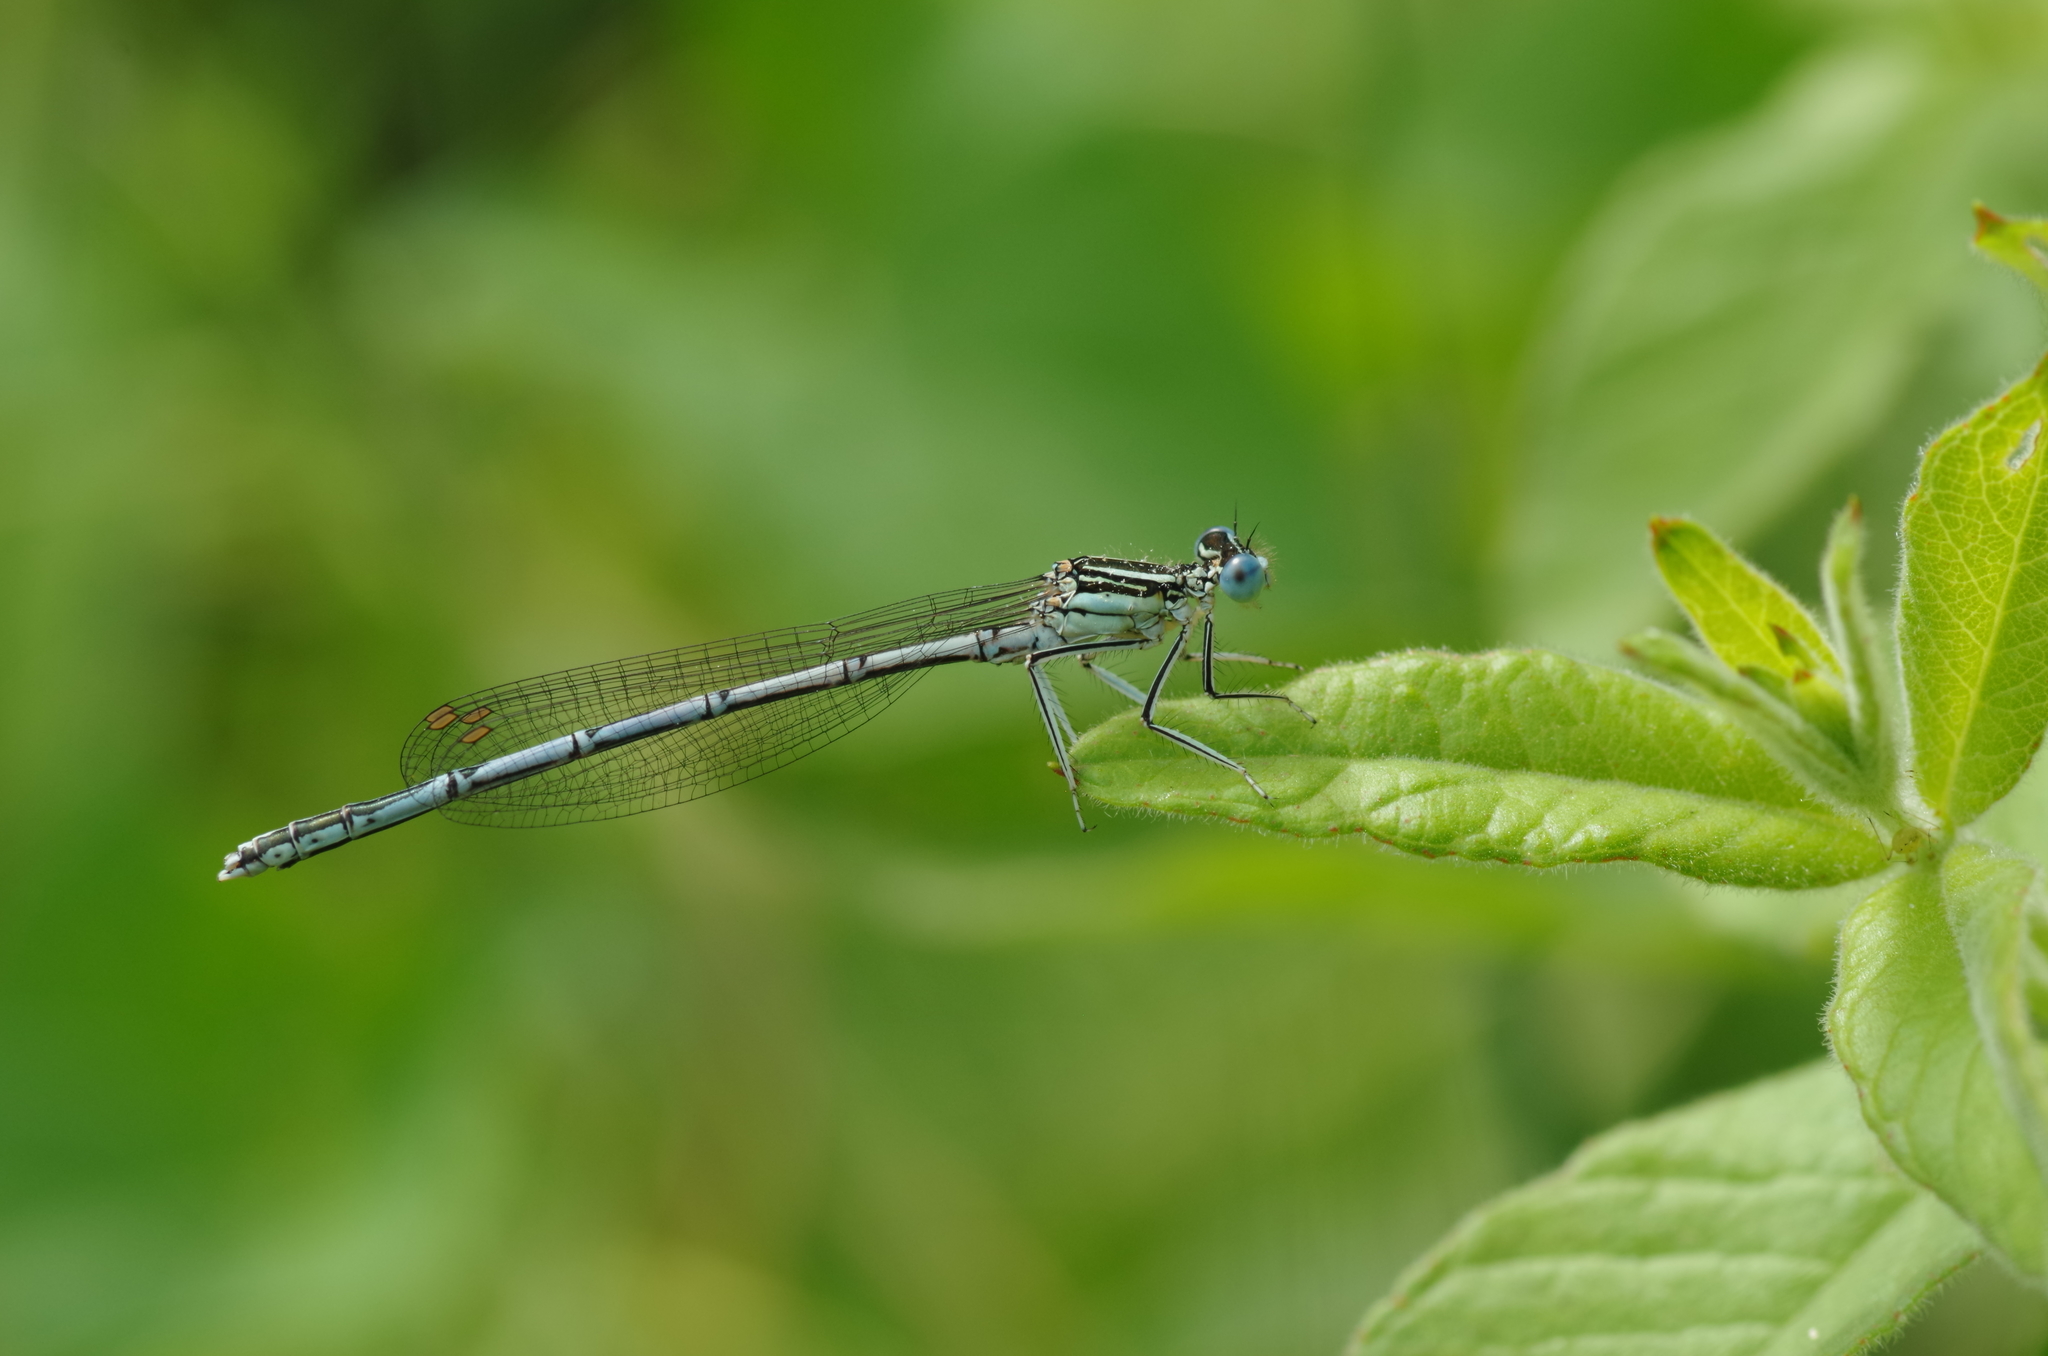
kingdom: Animalia
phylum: Arthropoda
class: Insecta
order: Odonata
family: Platycnemididae
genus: Platycnemis
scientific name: Platycnemis pennipes
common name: White-legged damselfly
